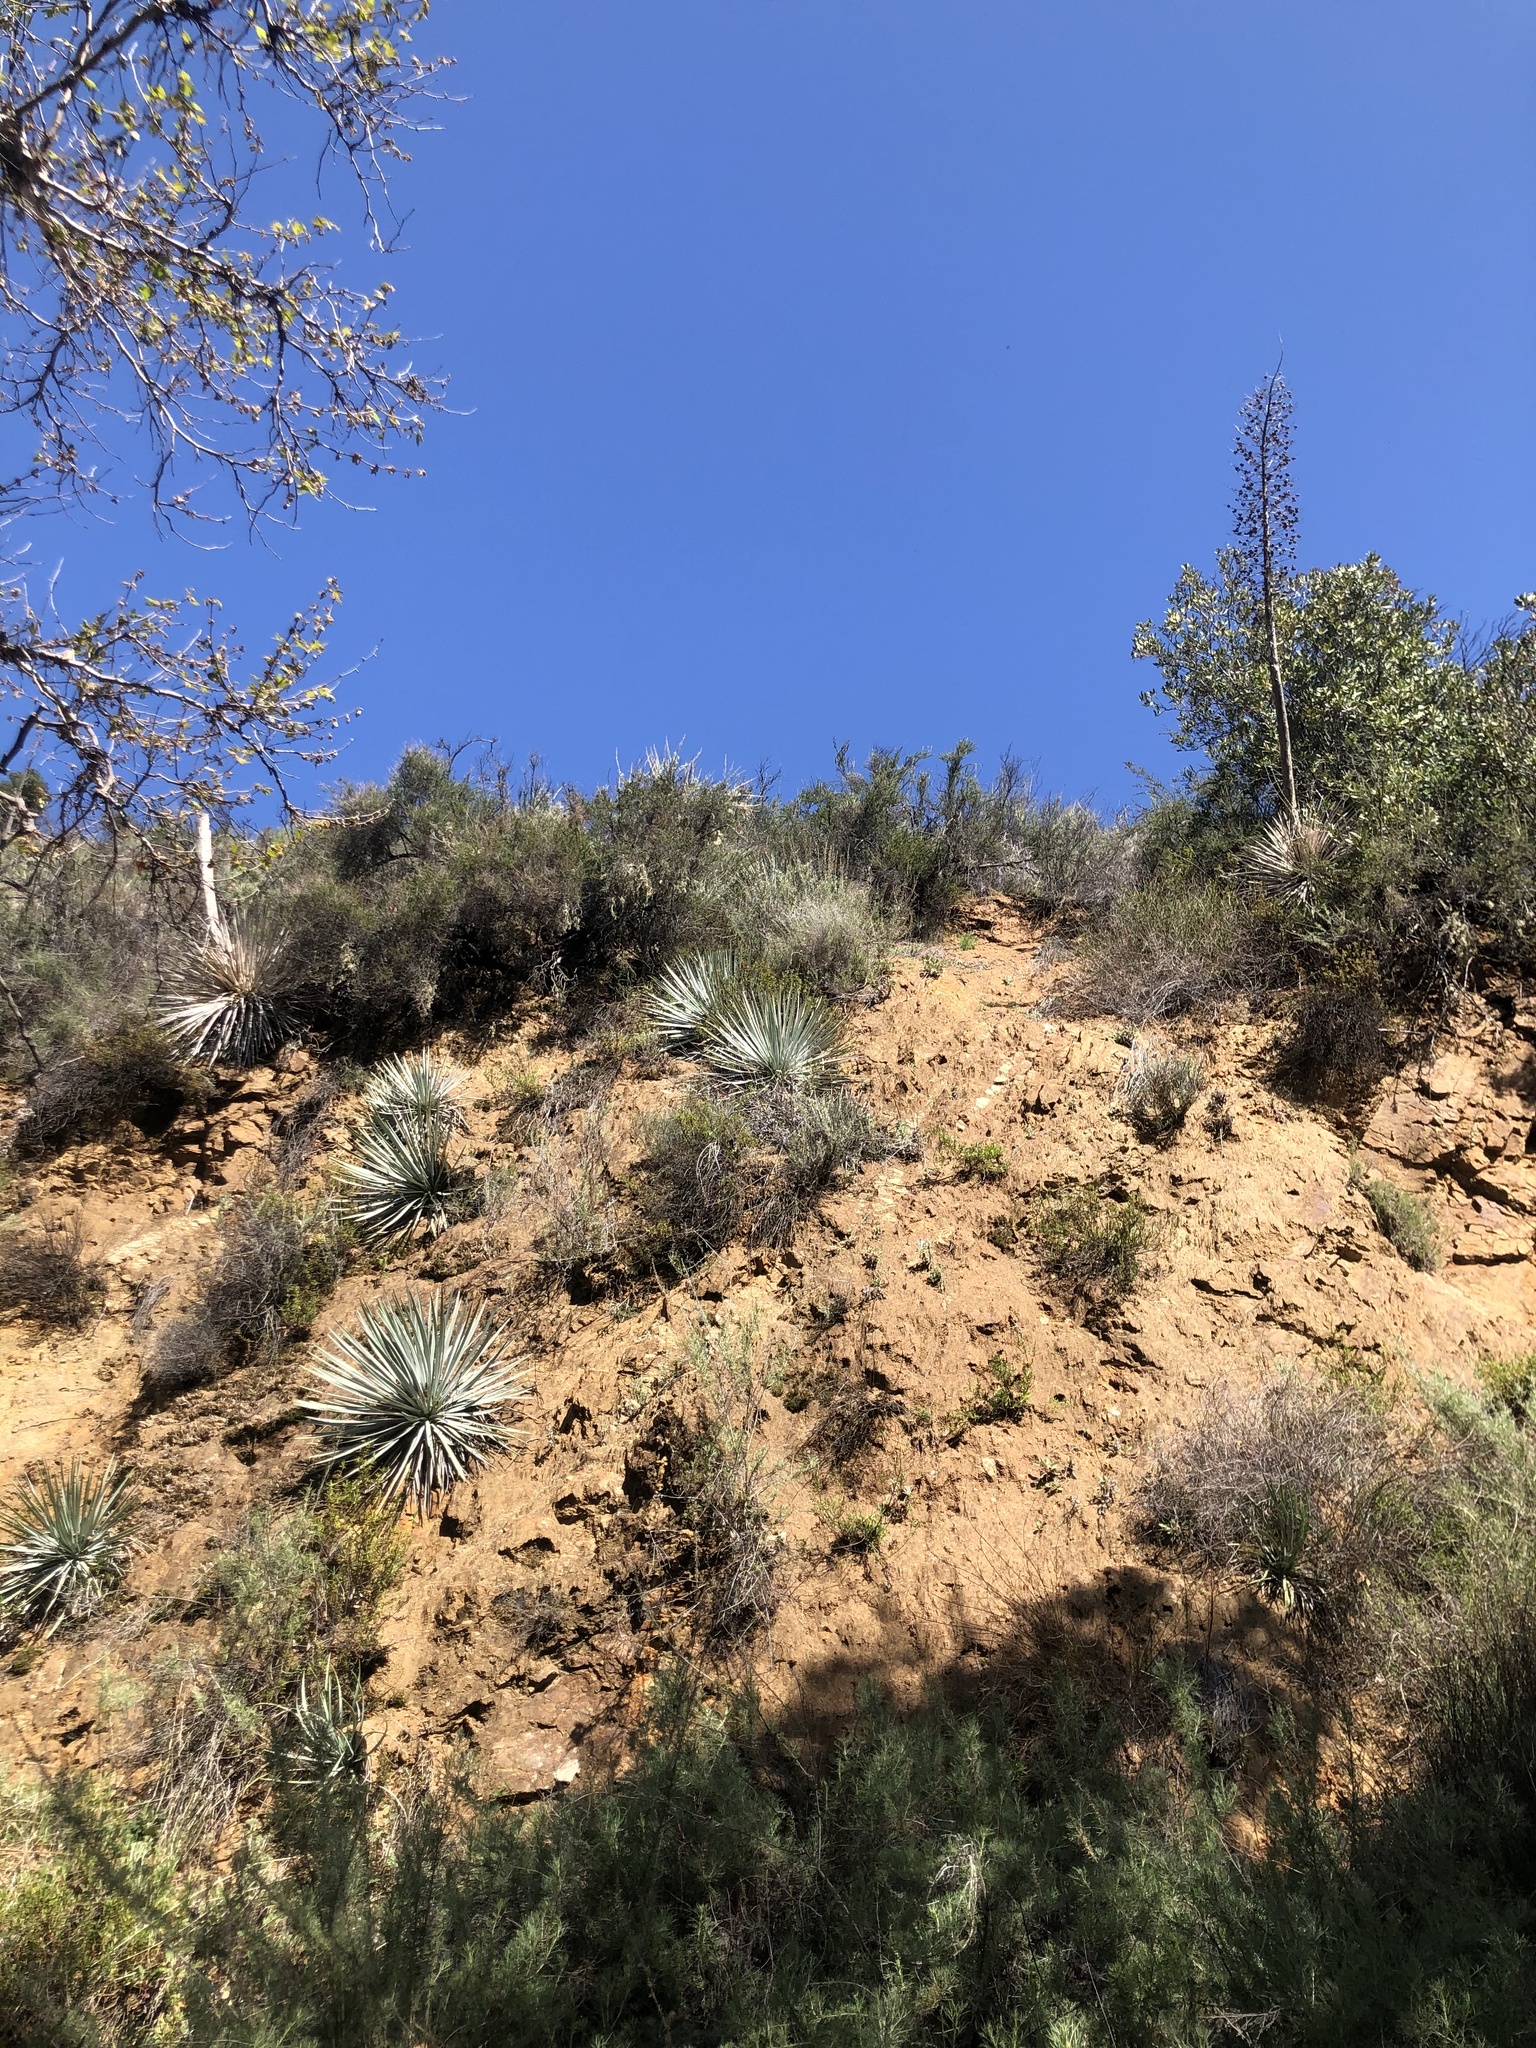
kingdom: Plantae
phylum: Tracheophyta
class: Liliopsida
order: Asparagales
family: Asparagaceae
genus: Hesperoyucca
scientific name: Hesperoyucca whipplei
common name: Our lord's-candle
